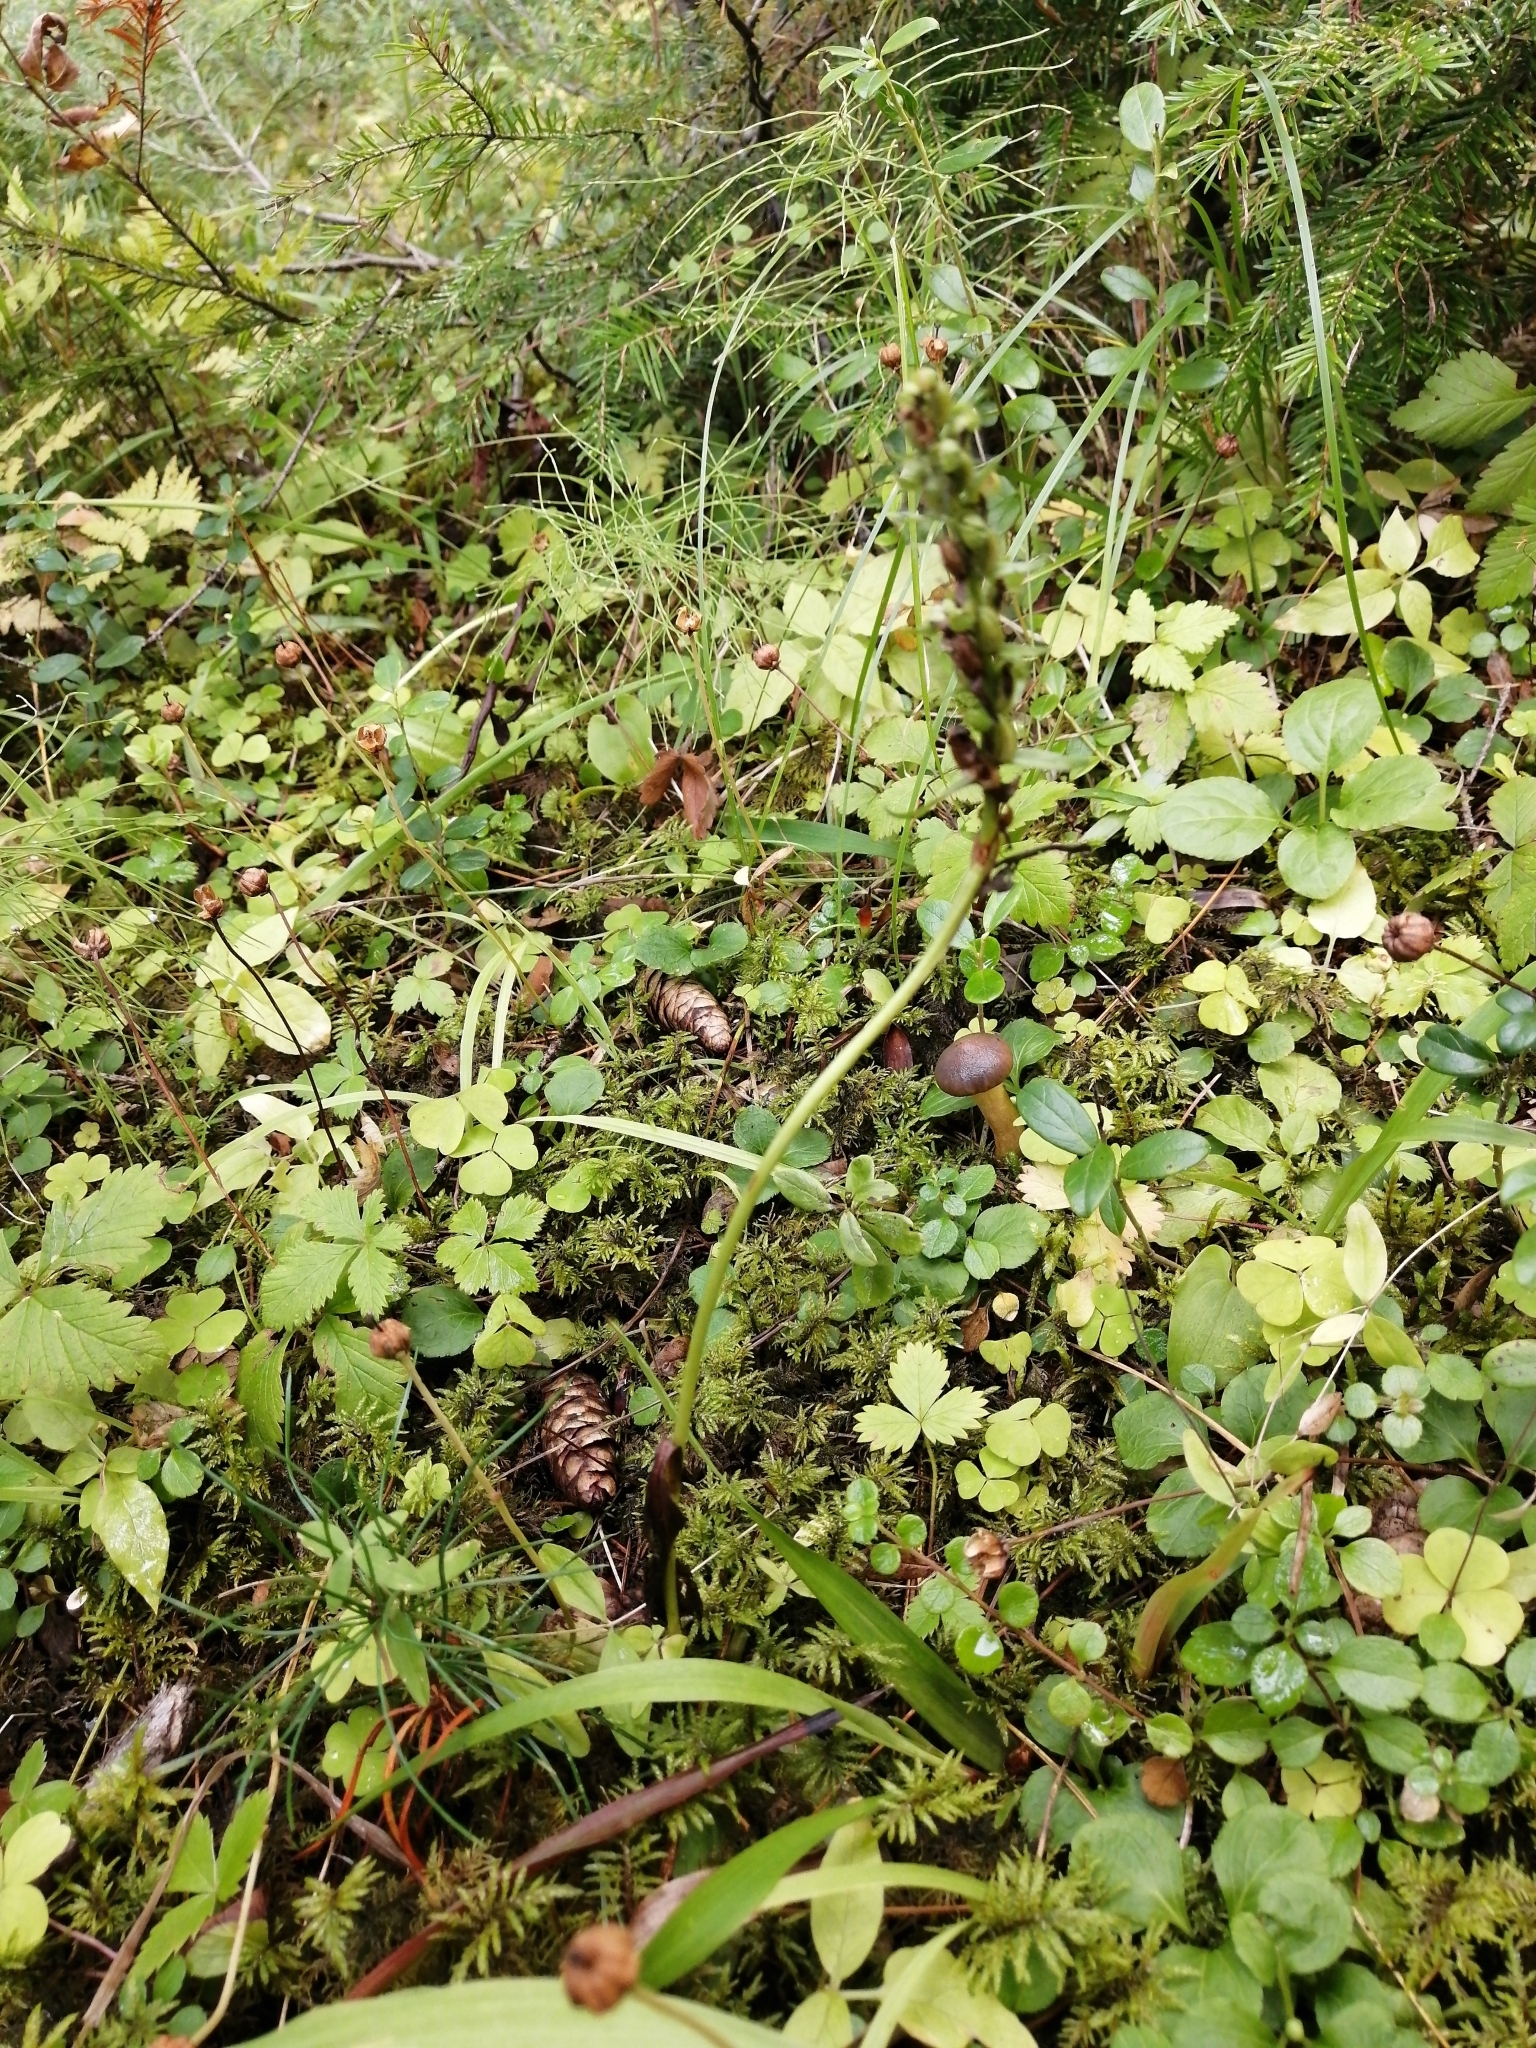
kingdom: Plantae
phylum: Tracheophyta
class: Liliopsida
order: Asparagales
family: Orchidaceae
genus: Dactylorhiza
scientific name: Dactylorhiza viridis
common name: Longbract frog orchid
